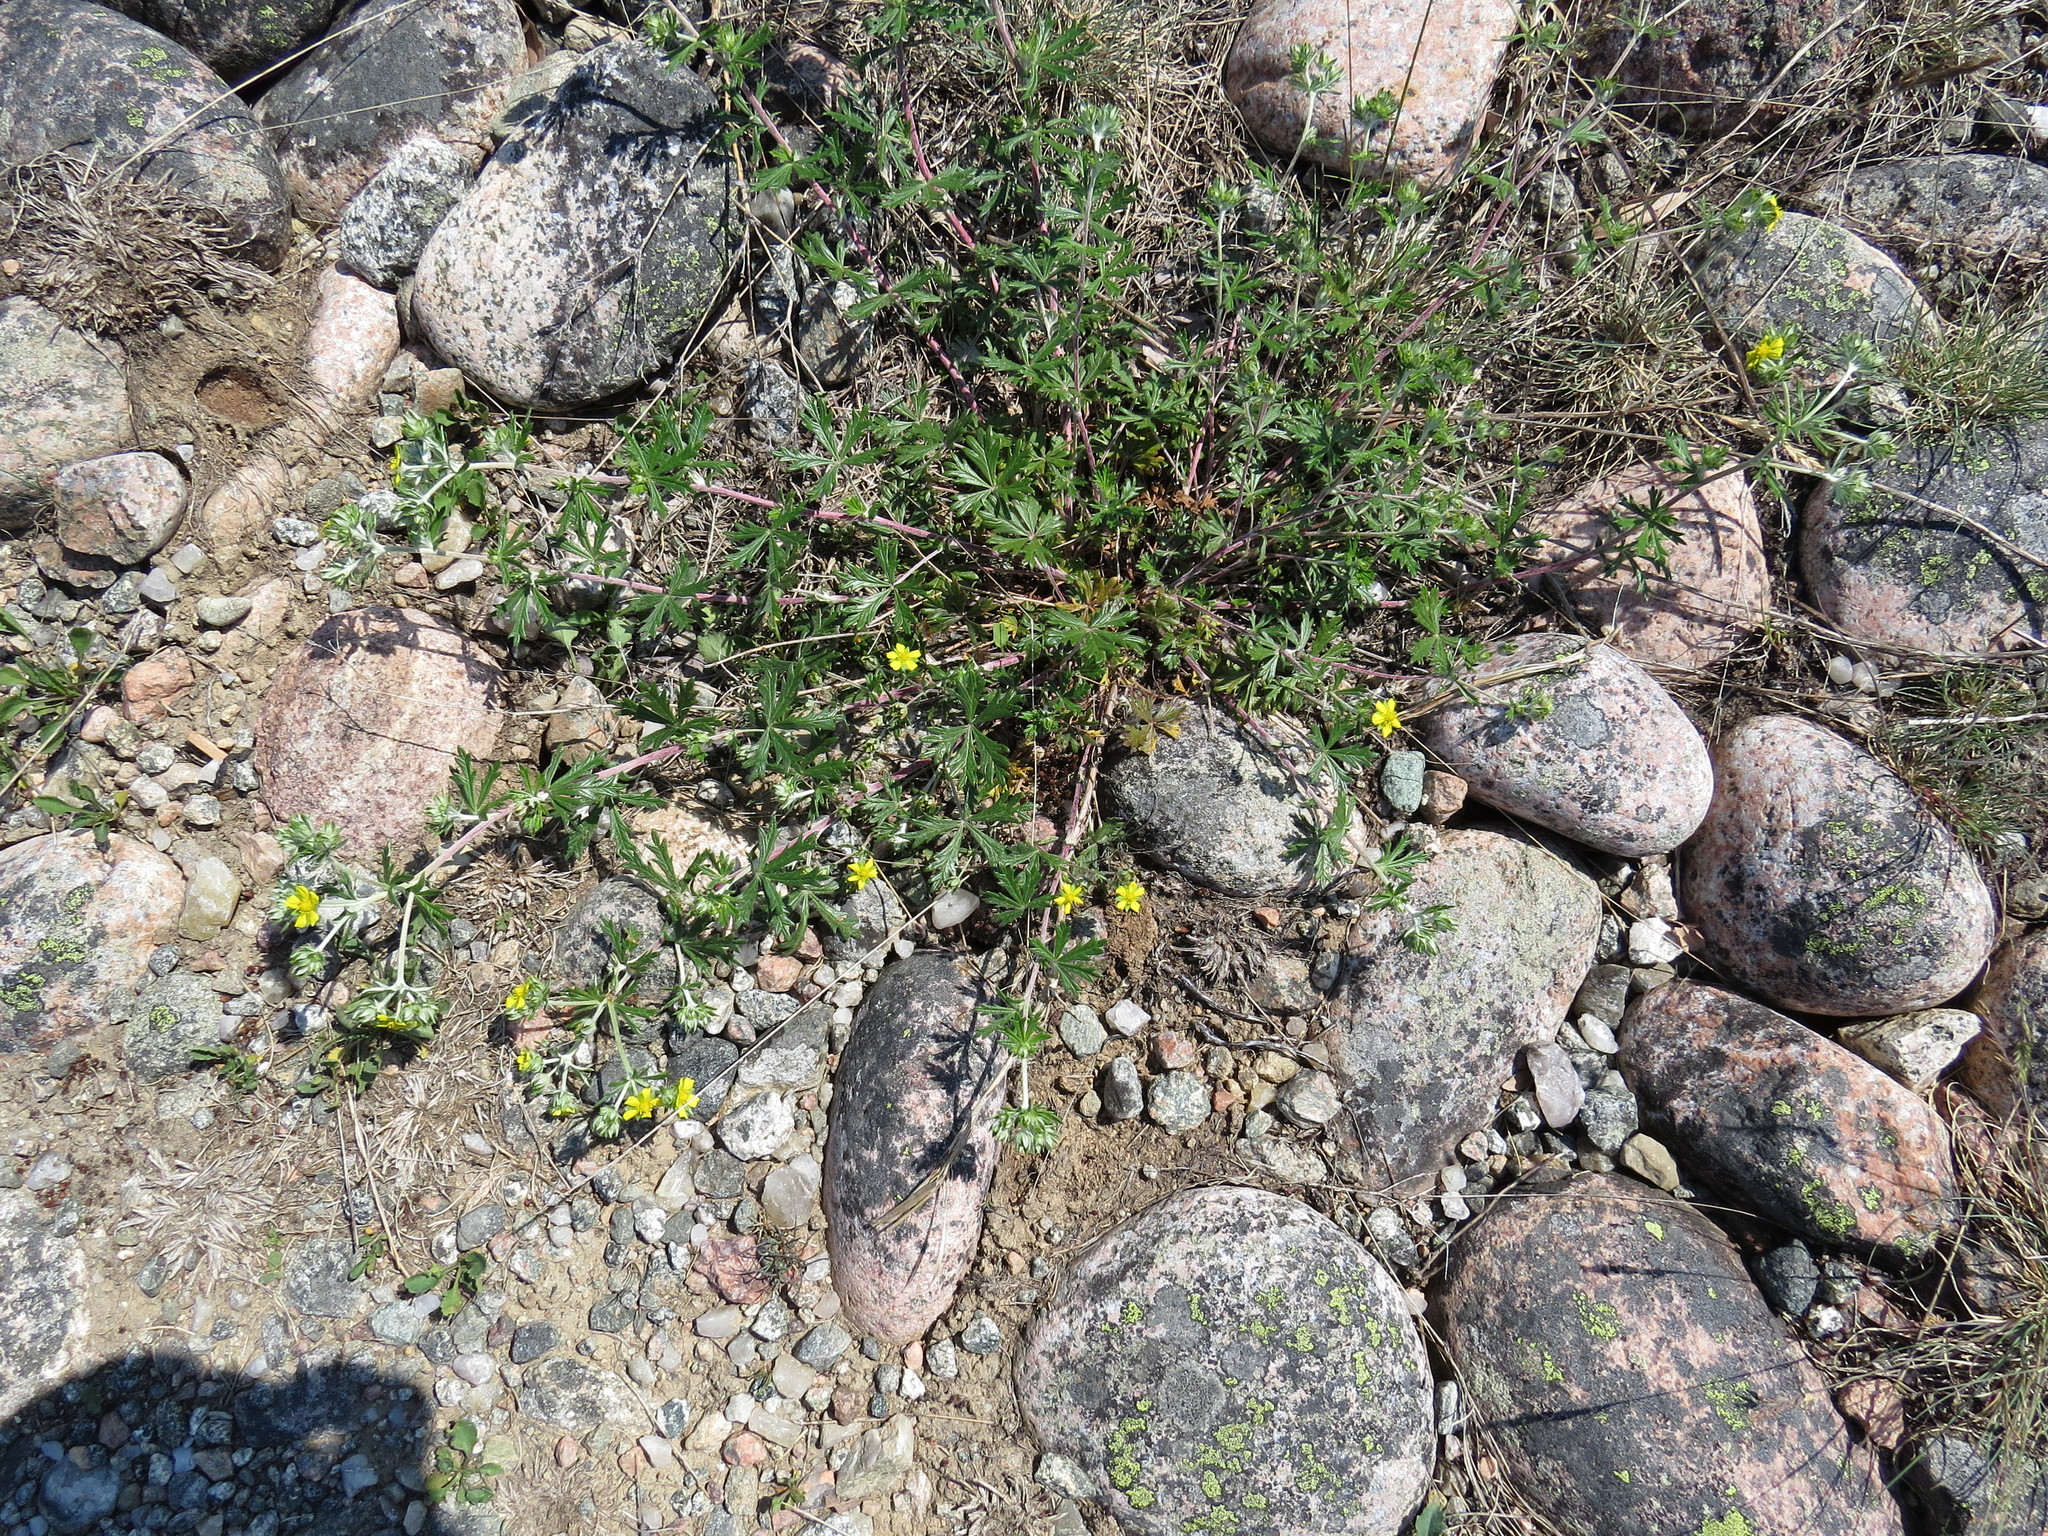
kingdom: Plantae
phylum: Tracheophyta
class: Magnoliopsida
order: Rosales
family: Rosaceae
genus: Potentilla
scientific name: Potentilla argentea
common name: Hoary cinquefoil
